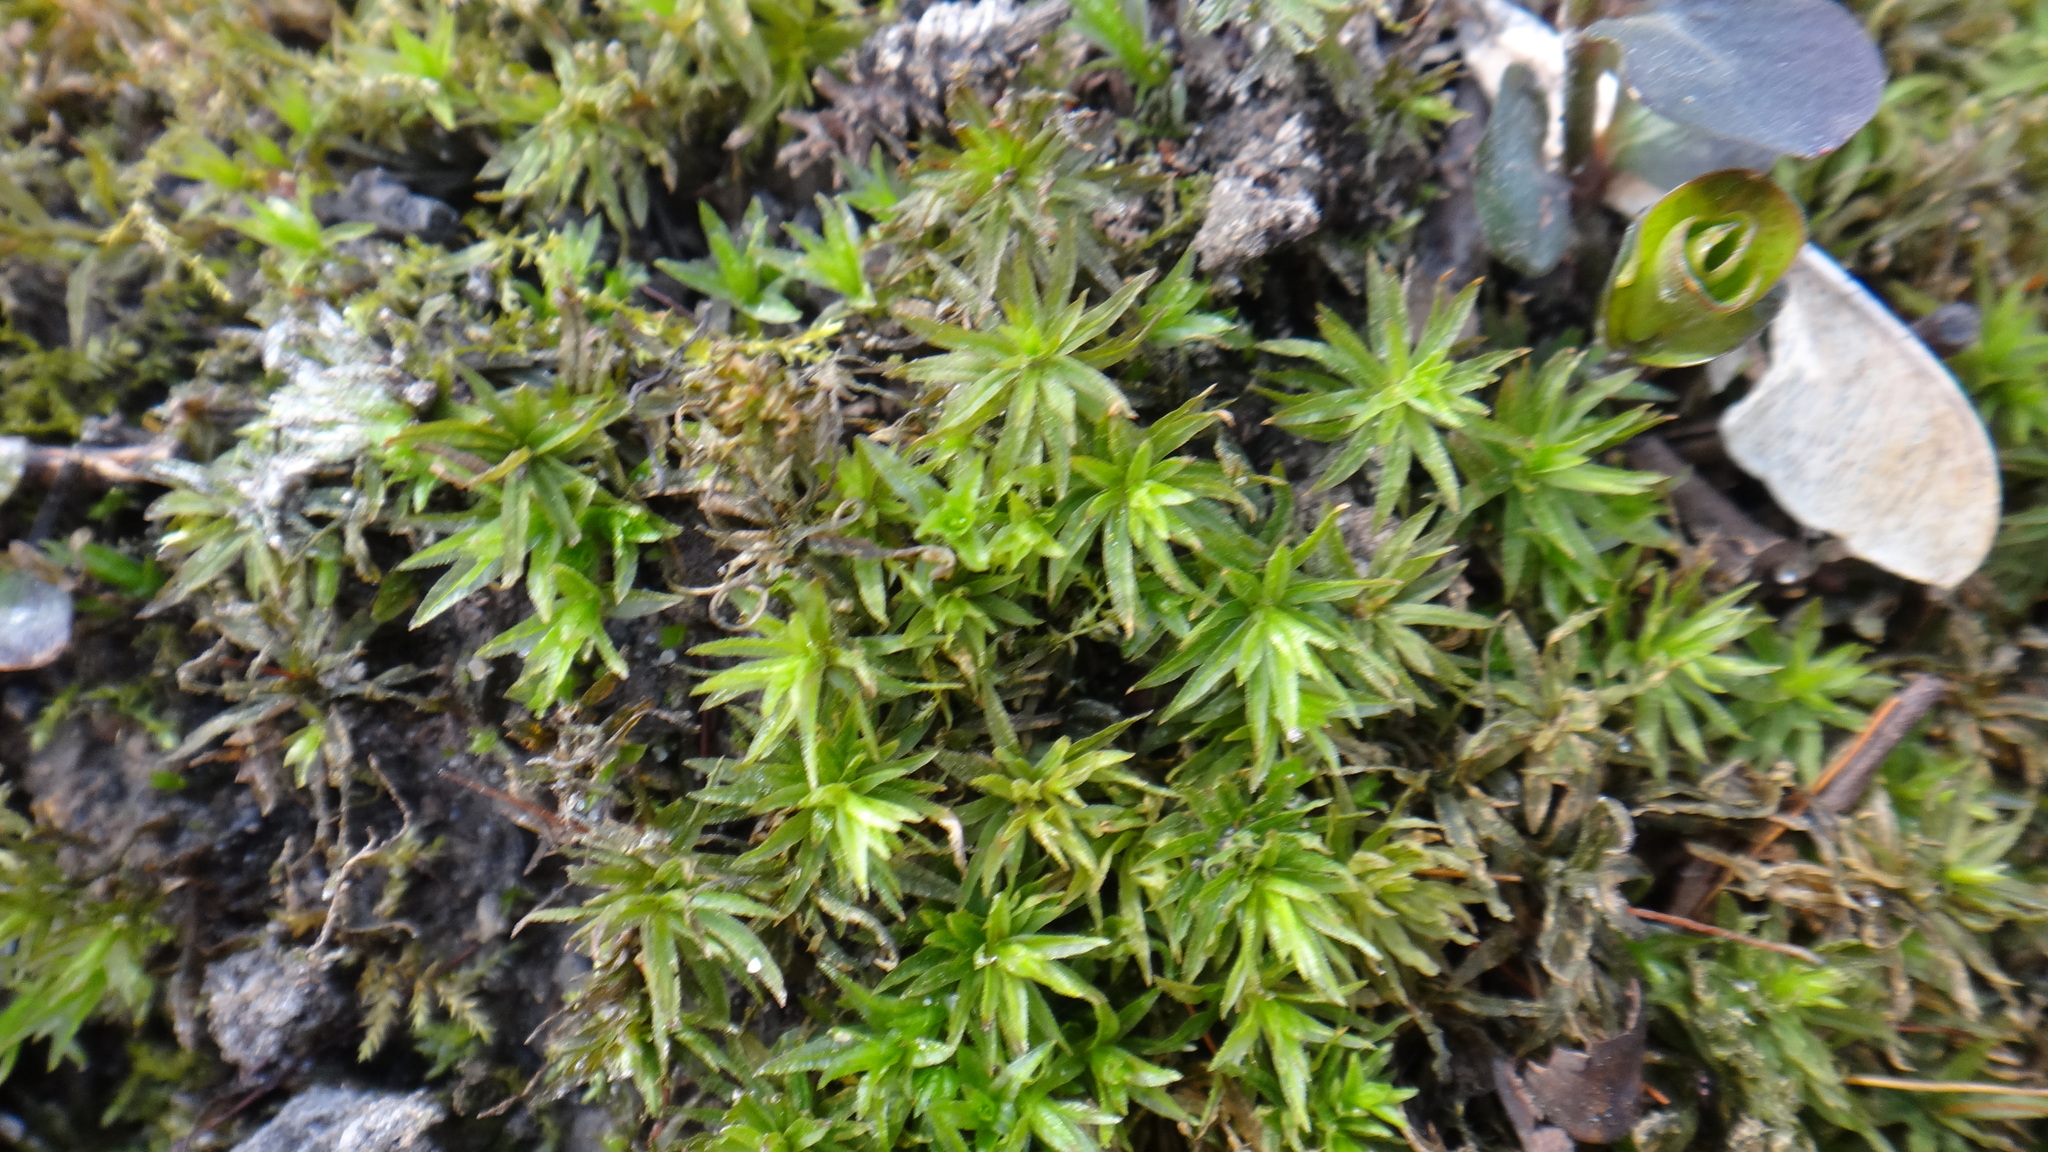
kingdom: Plantae
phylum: Bryophyta
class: Polytrichopsida
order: Polytrichales
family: Polytrichaceae
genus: Atrichum
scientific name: Atrichum undulatum
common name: Common smoothcap
